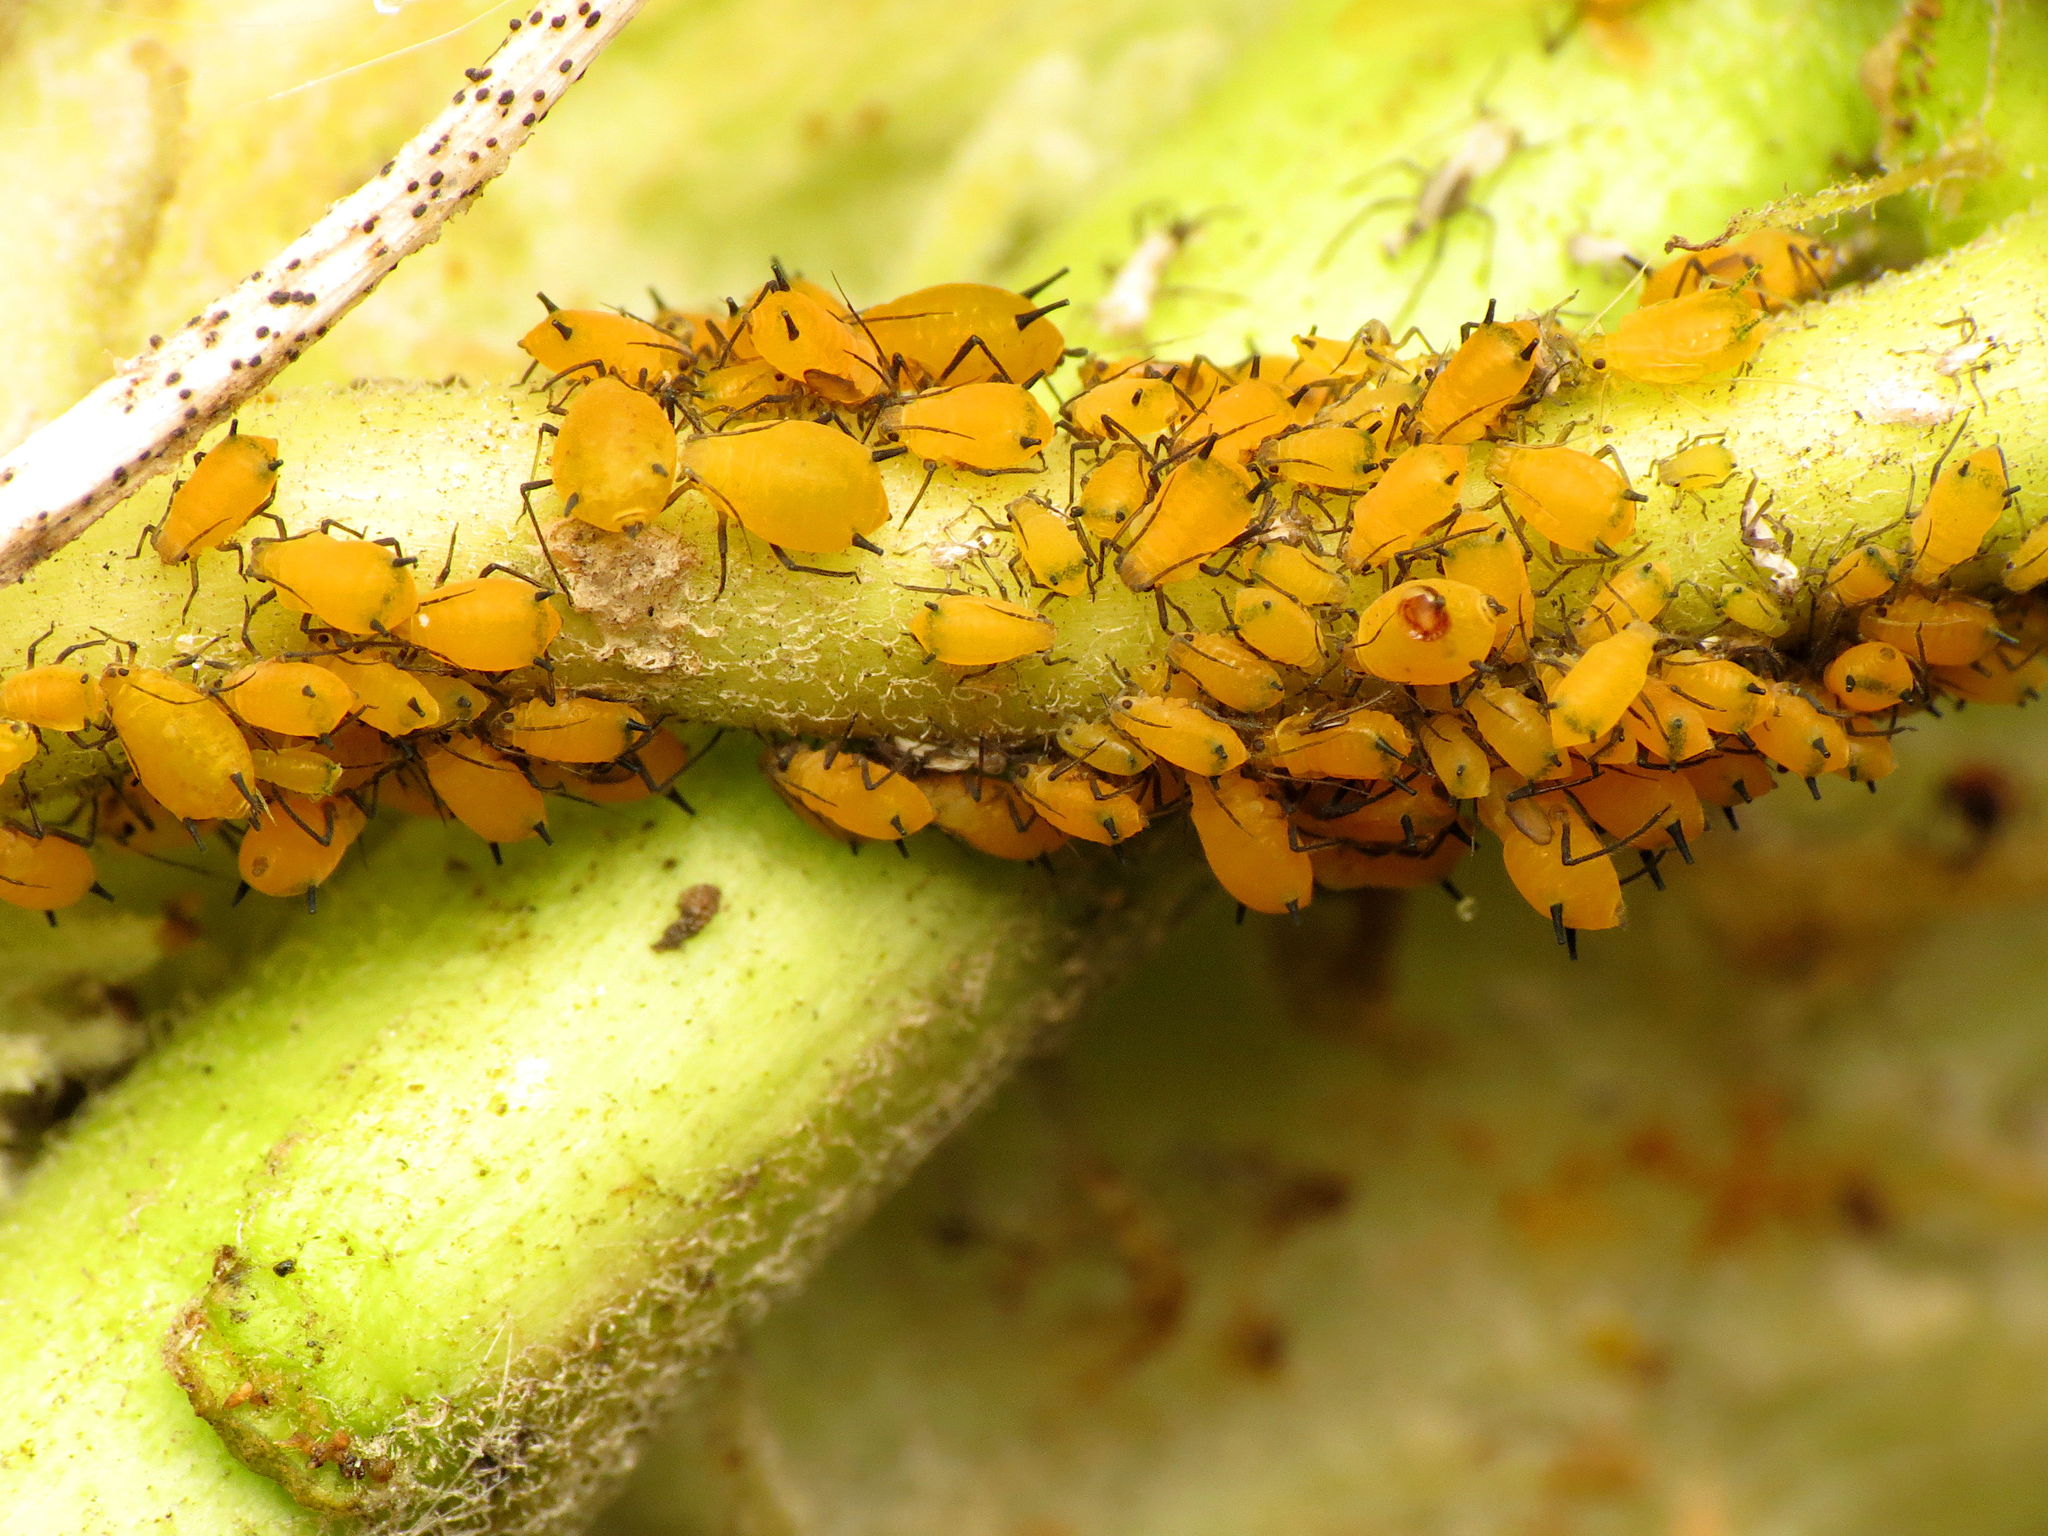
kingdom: Animalia
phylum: Arthropoda
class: Insecta
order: Hemiptera
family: Aphididae
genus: Aphis
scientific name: Aphis nerii
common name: Oleander aphid
